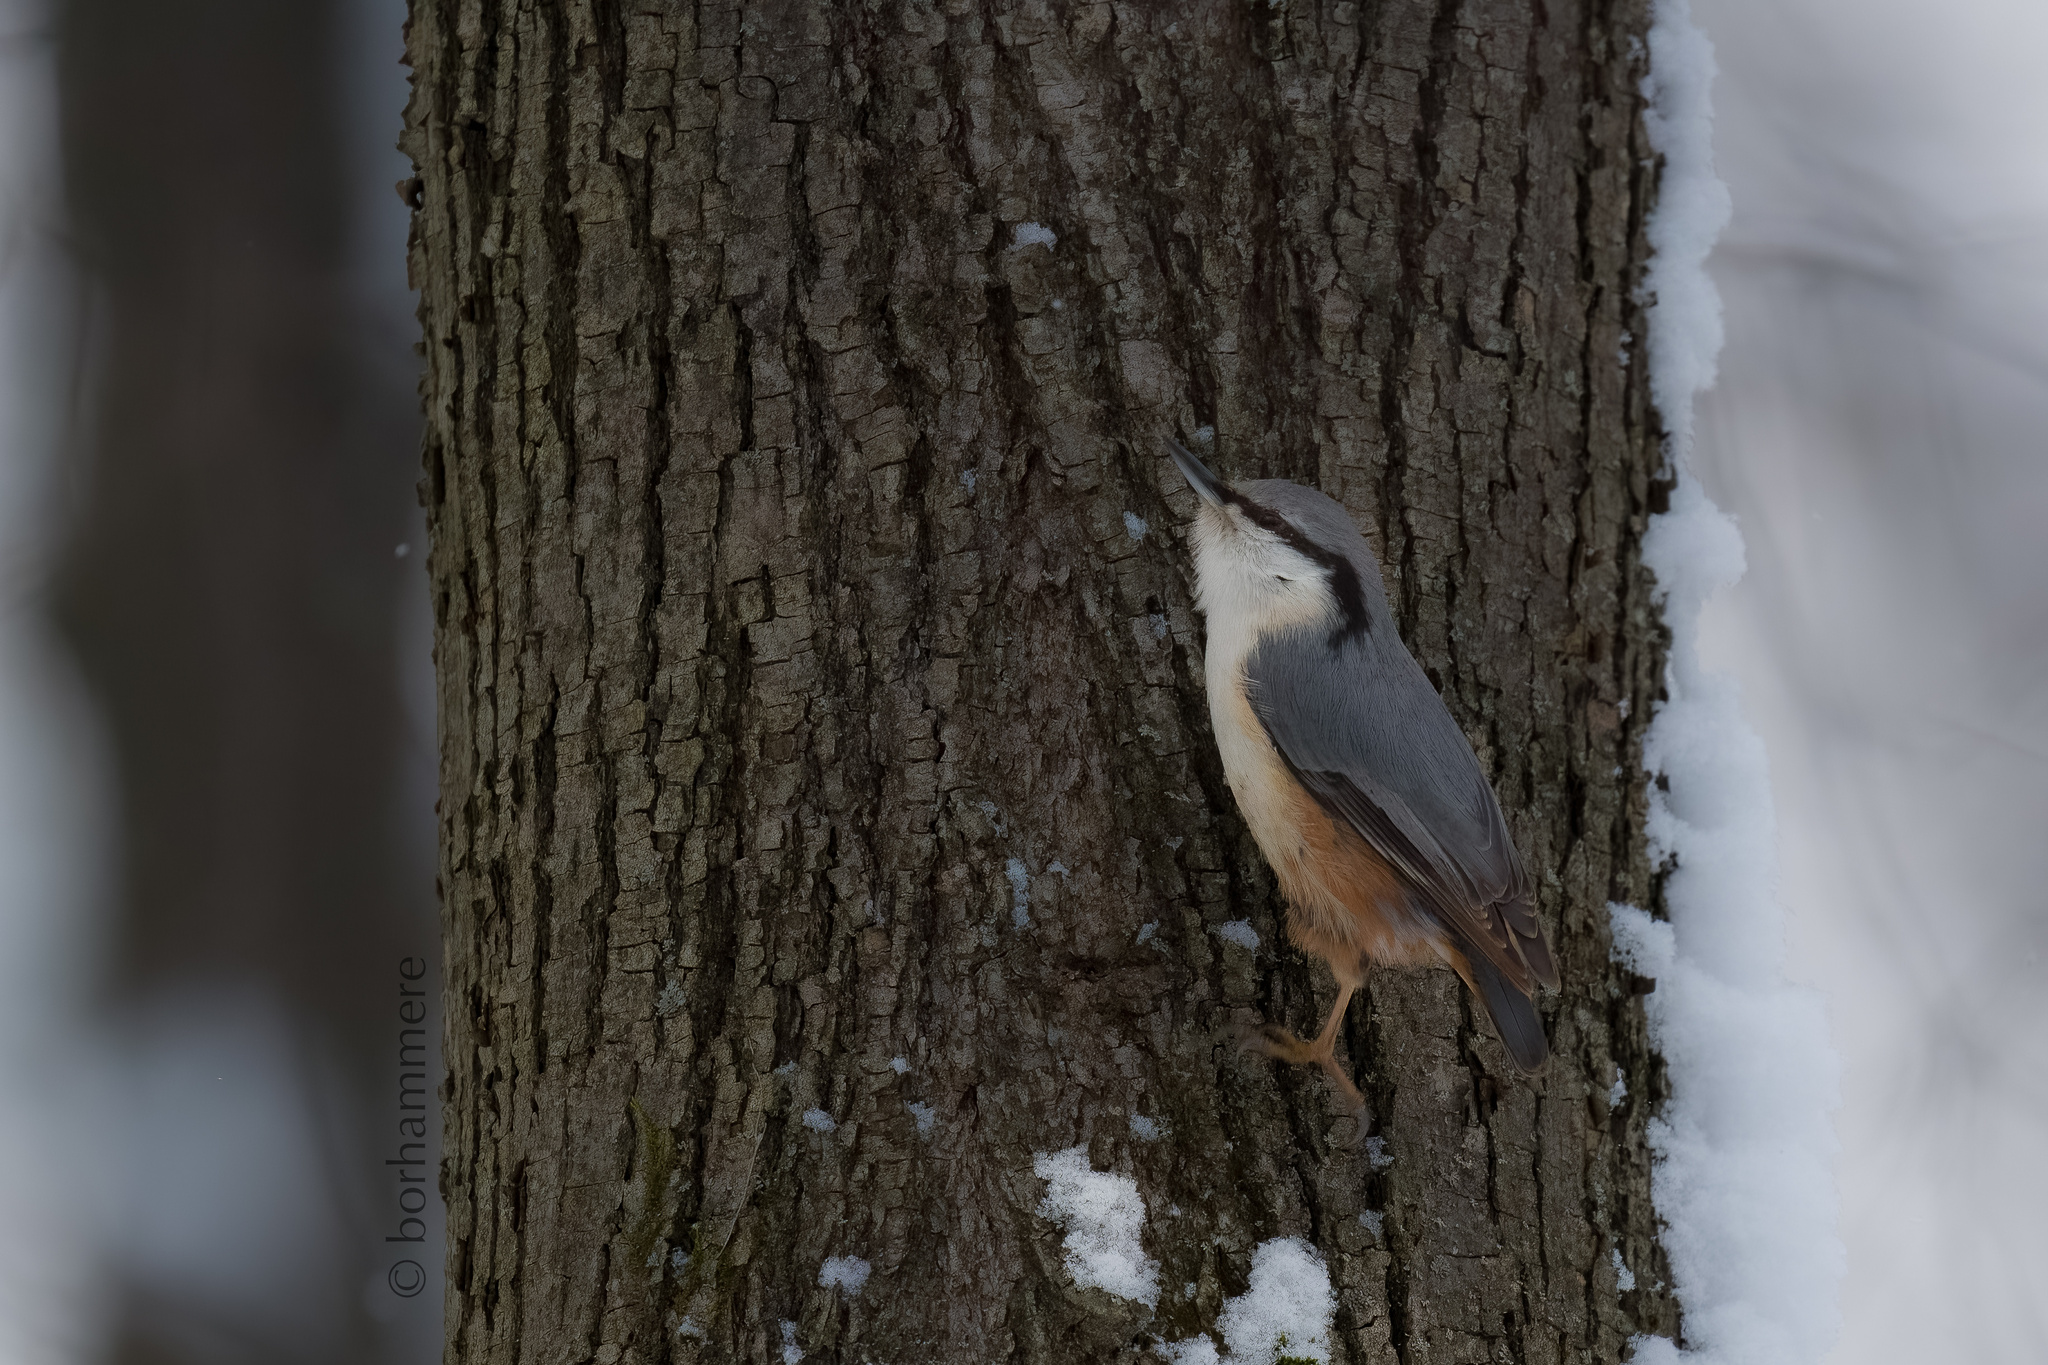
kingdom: Animalia
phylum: Chordata
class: Aves
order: Passeriformes
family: Sittidae
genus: Sitta
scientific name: Sitta europaea
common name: Eurasian nuthatch
